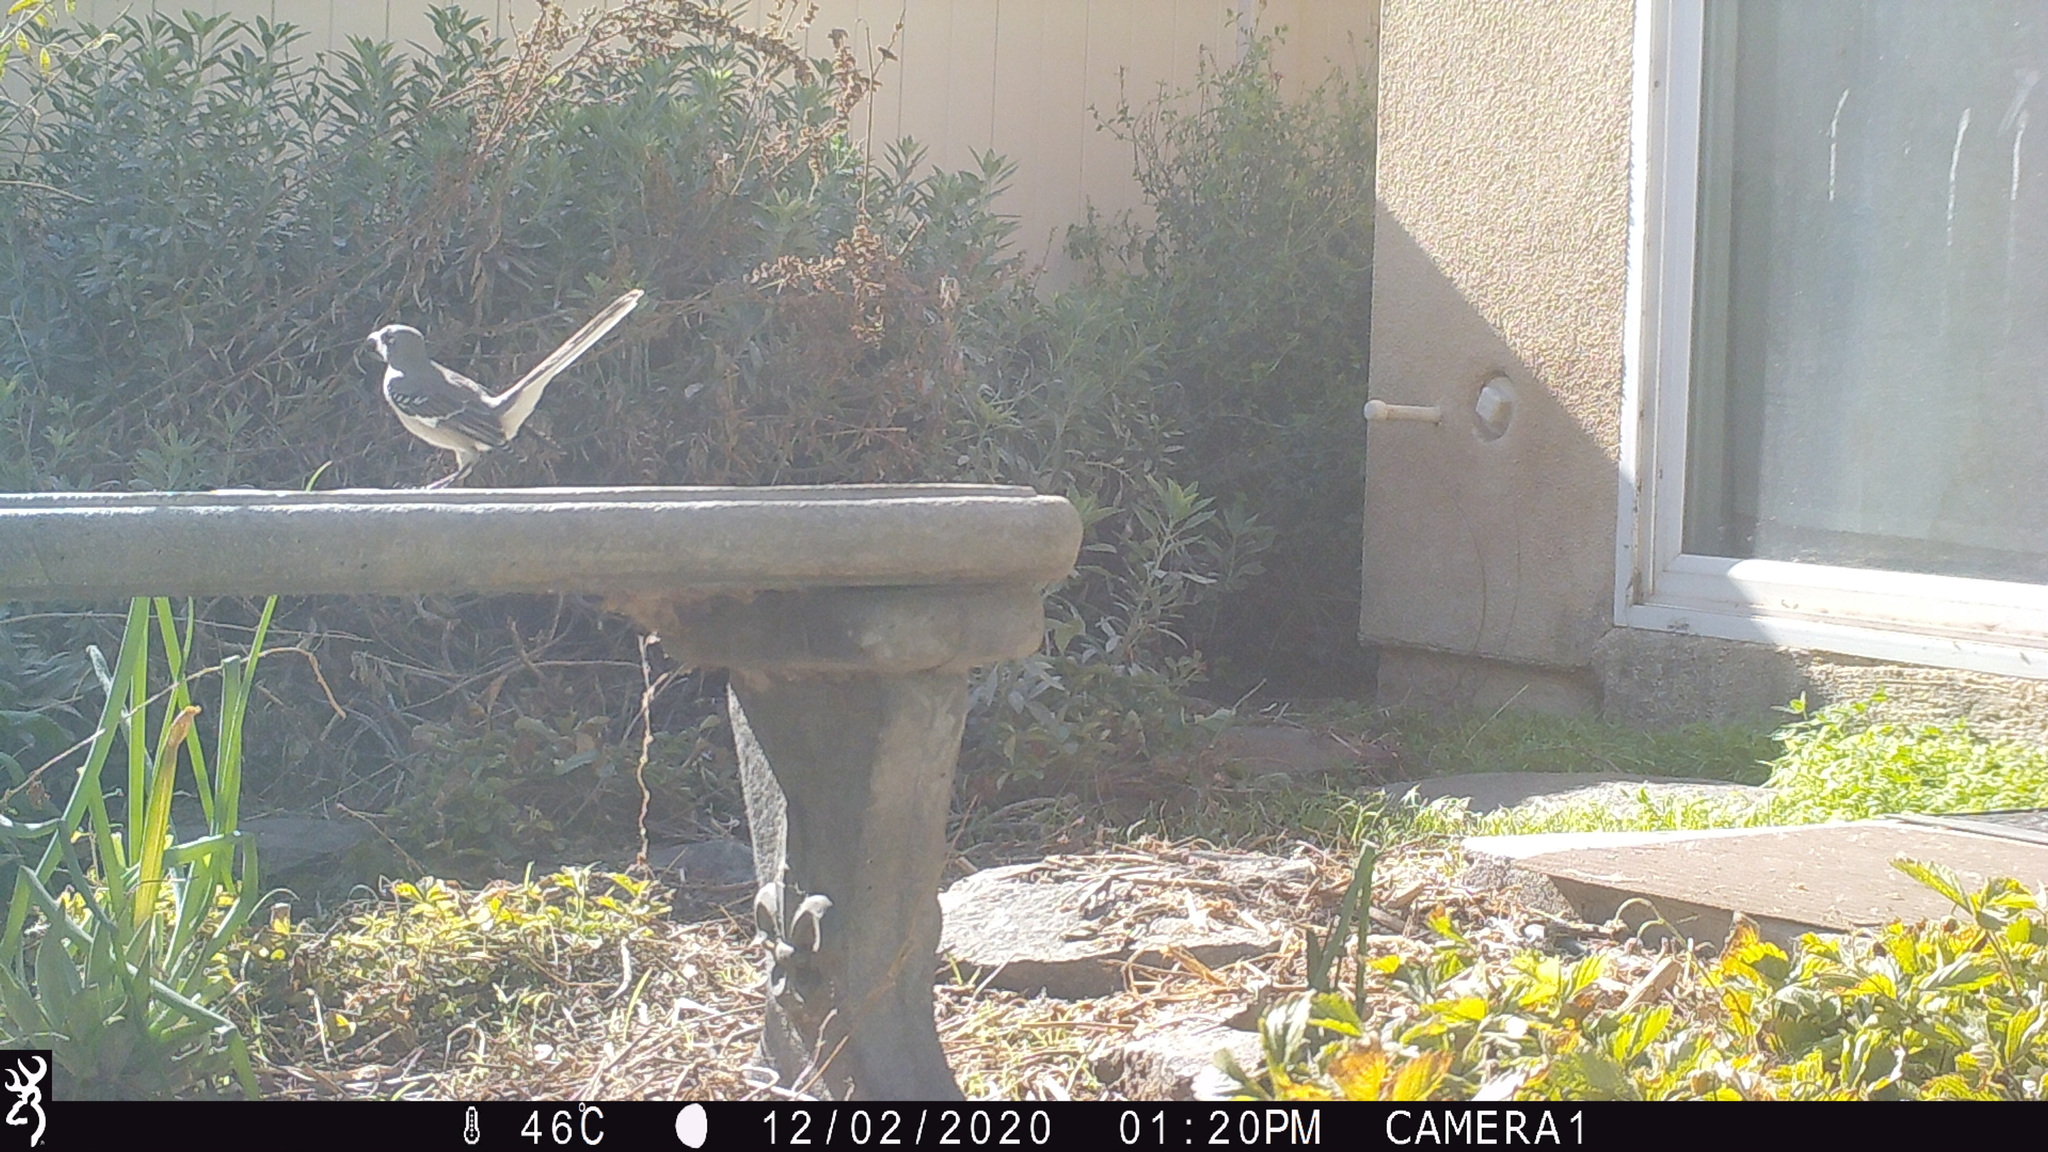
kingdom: Animalia
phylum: Chordata
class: Aves
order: Passeriformes
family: Mimidae
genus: Mimus
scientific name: Mimus polyglottos
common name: Northern mockingbird
